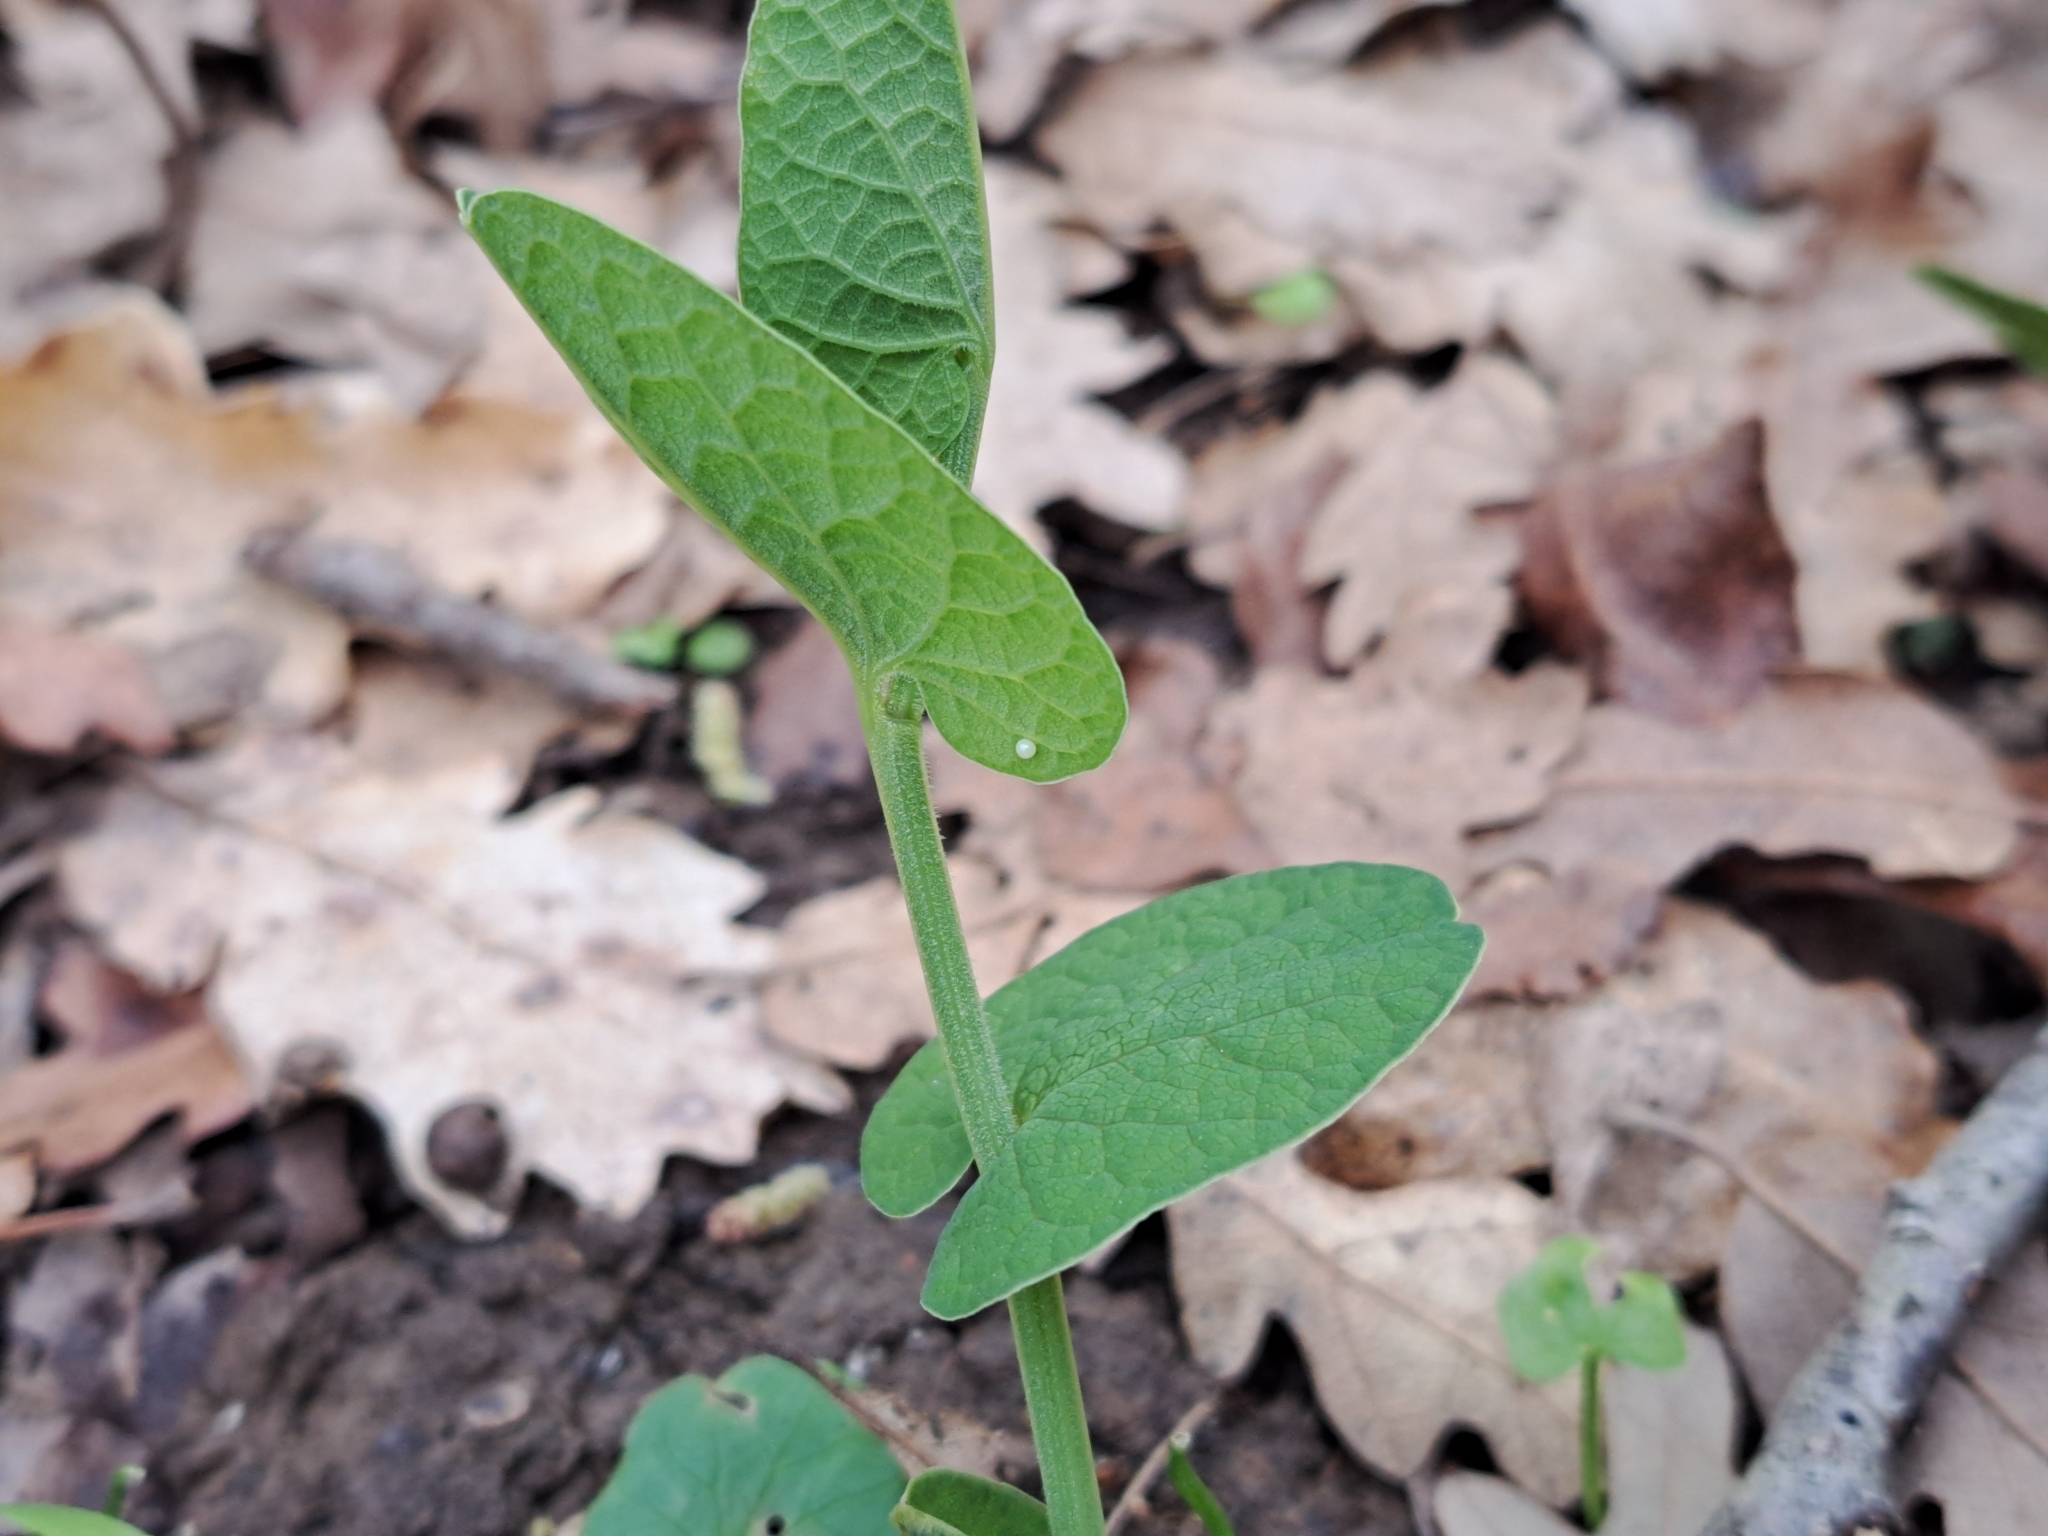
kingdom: Animalia
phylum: Arthropoda
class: Insecta
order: Lepidoptera
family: Papilionidae
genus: Zerynthia
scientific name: Zerynthia cassandra
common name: Italian festoon
